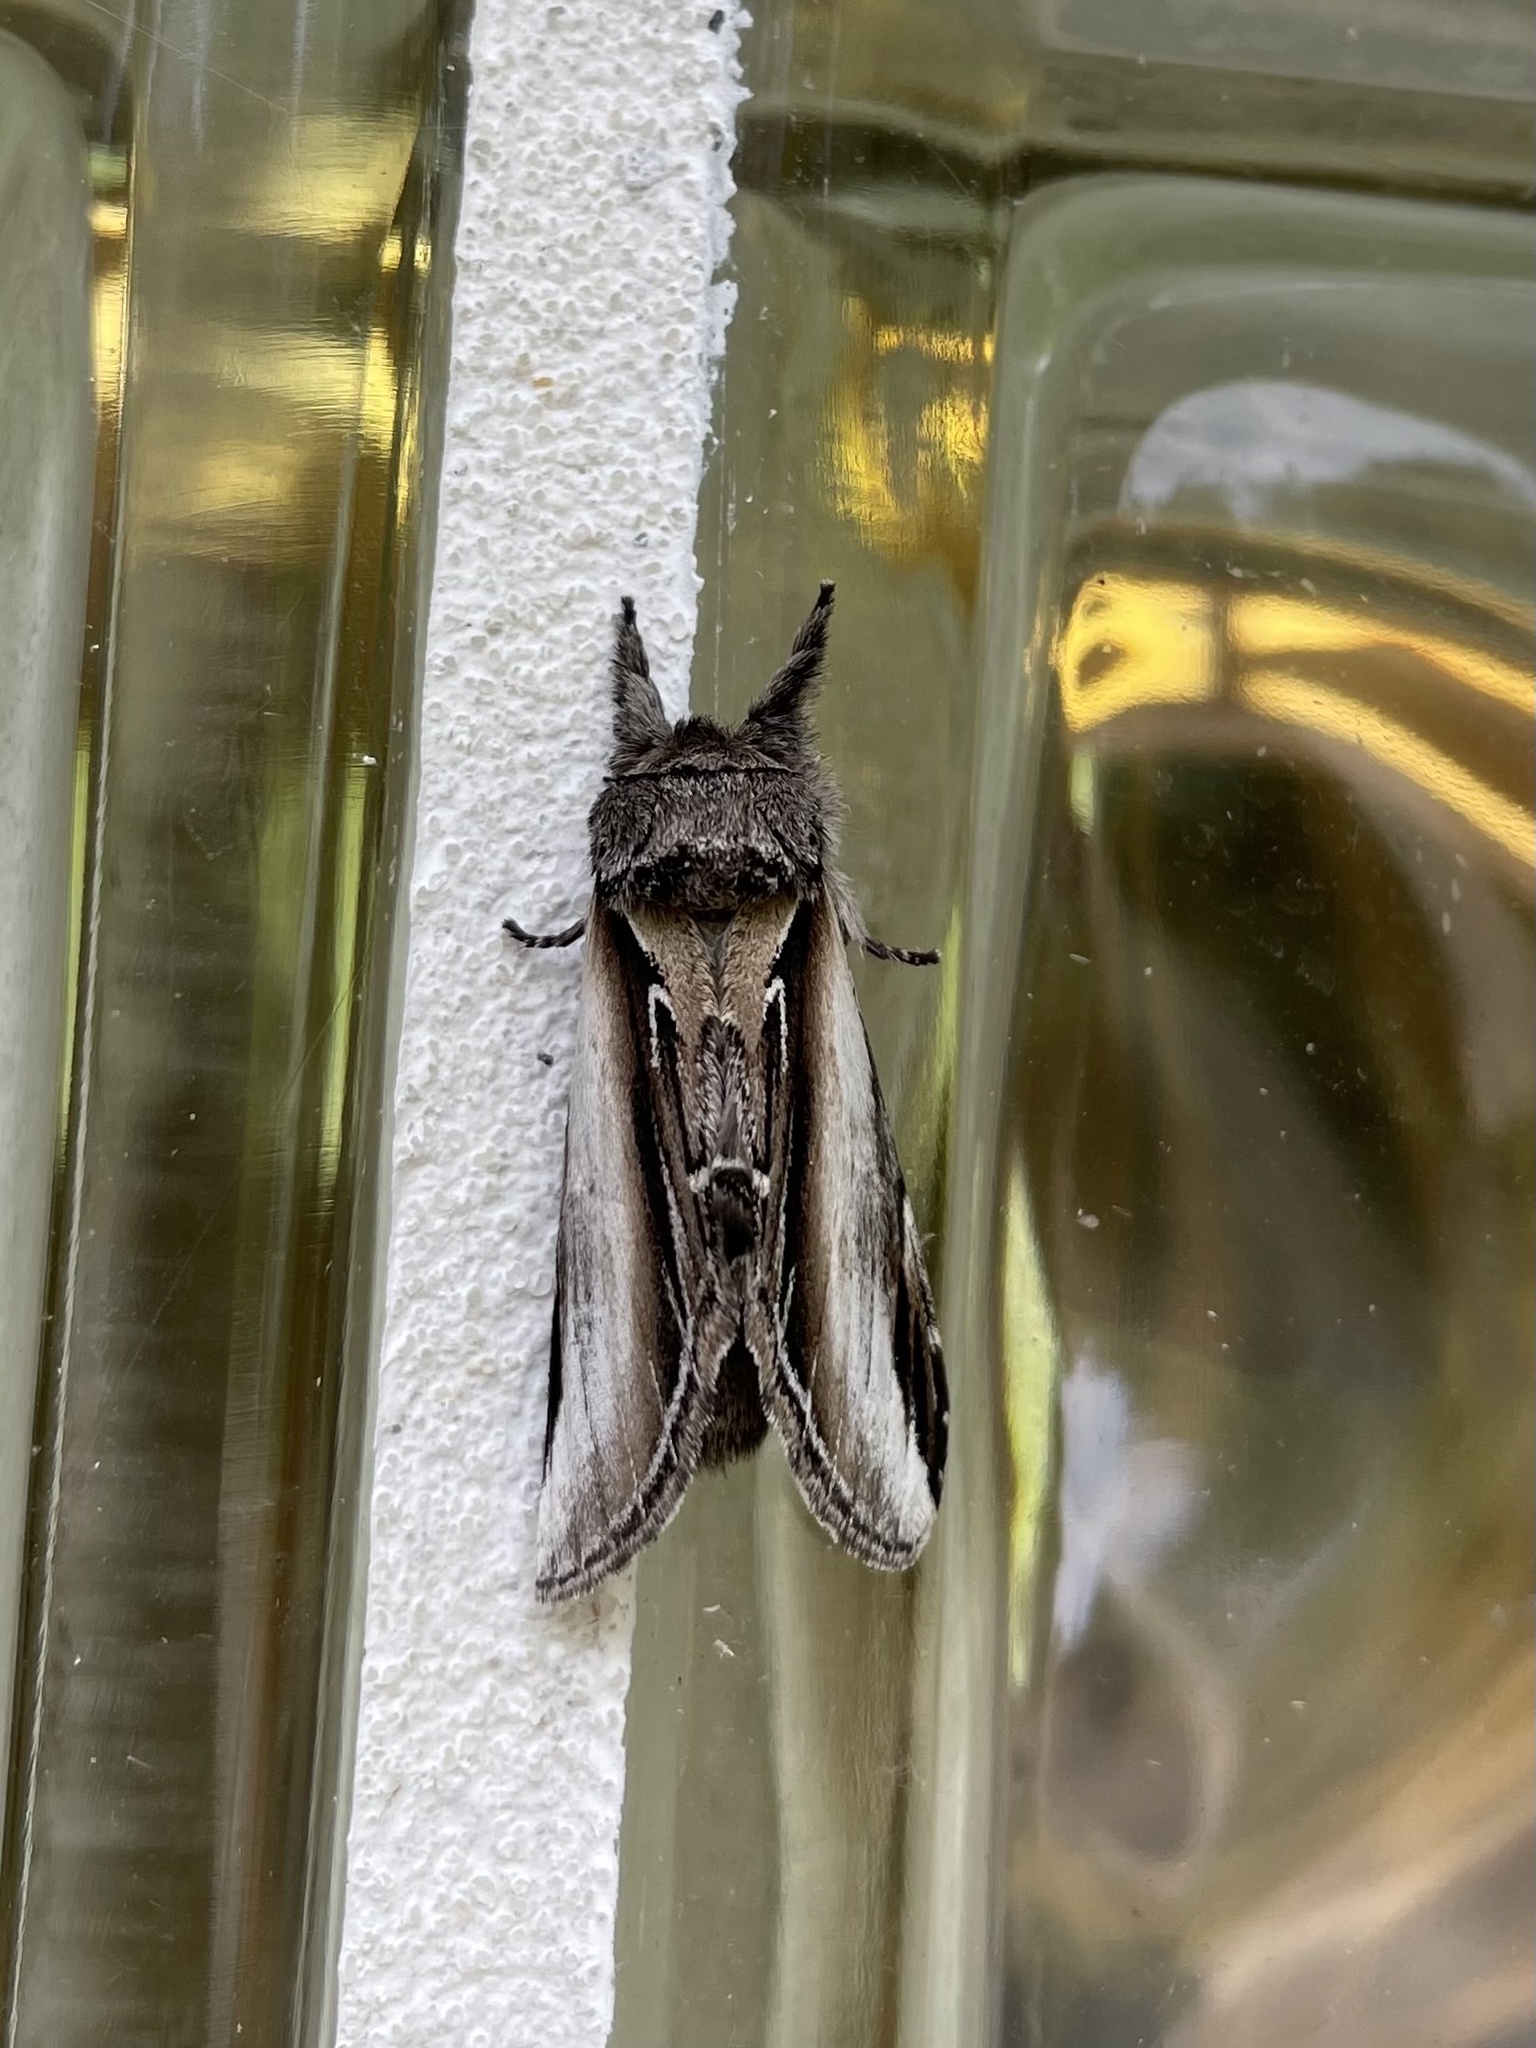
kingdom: Animalia
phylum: Arthropoda
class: Insecta
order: Lepidoptera
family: Notodontidae
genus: Pheosia
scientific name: Pheosia rimosa
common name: Black-rimmed prominent
